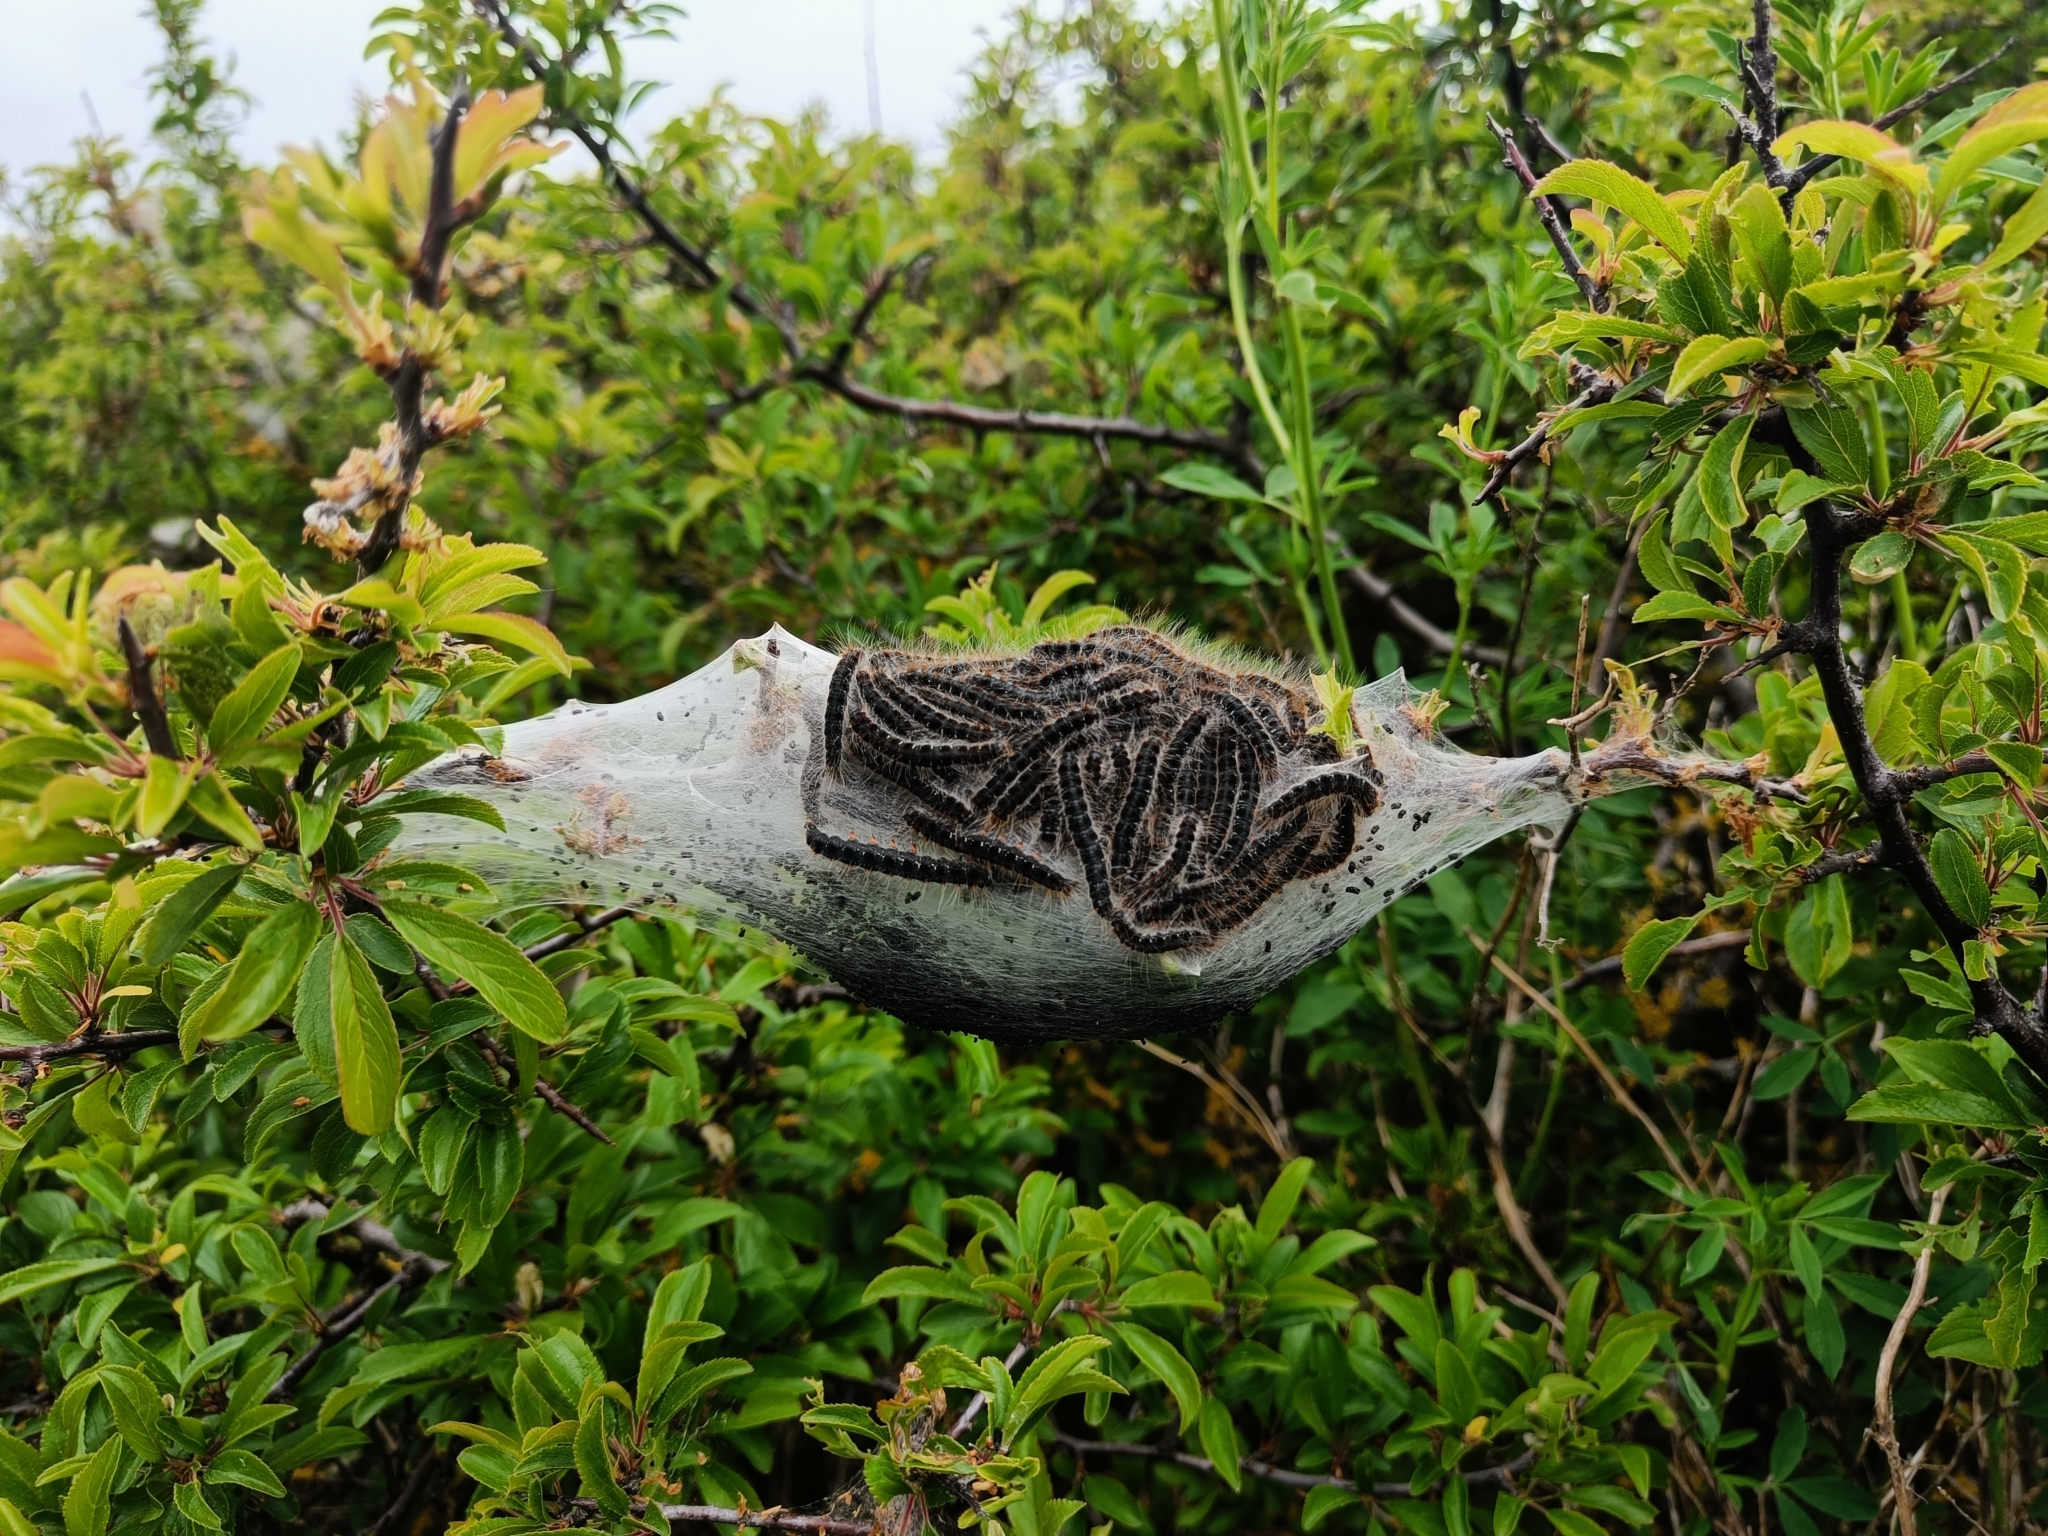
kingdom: Animalia
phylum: Arthropoda
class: Insecta
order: Lepidoptera
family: Lasiocampidae
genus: Eriogaster
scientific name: Eriogaster lanestris
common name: Small eggar
